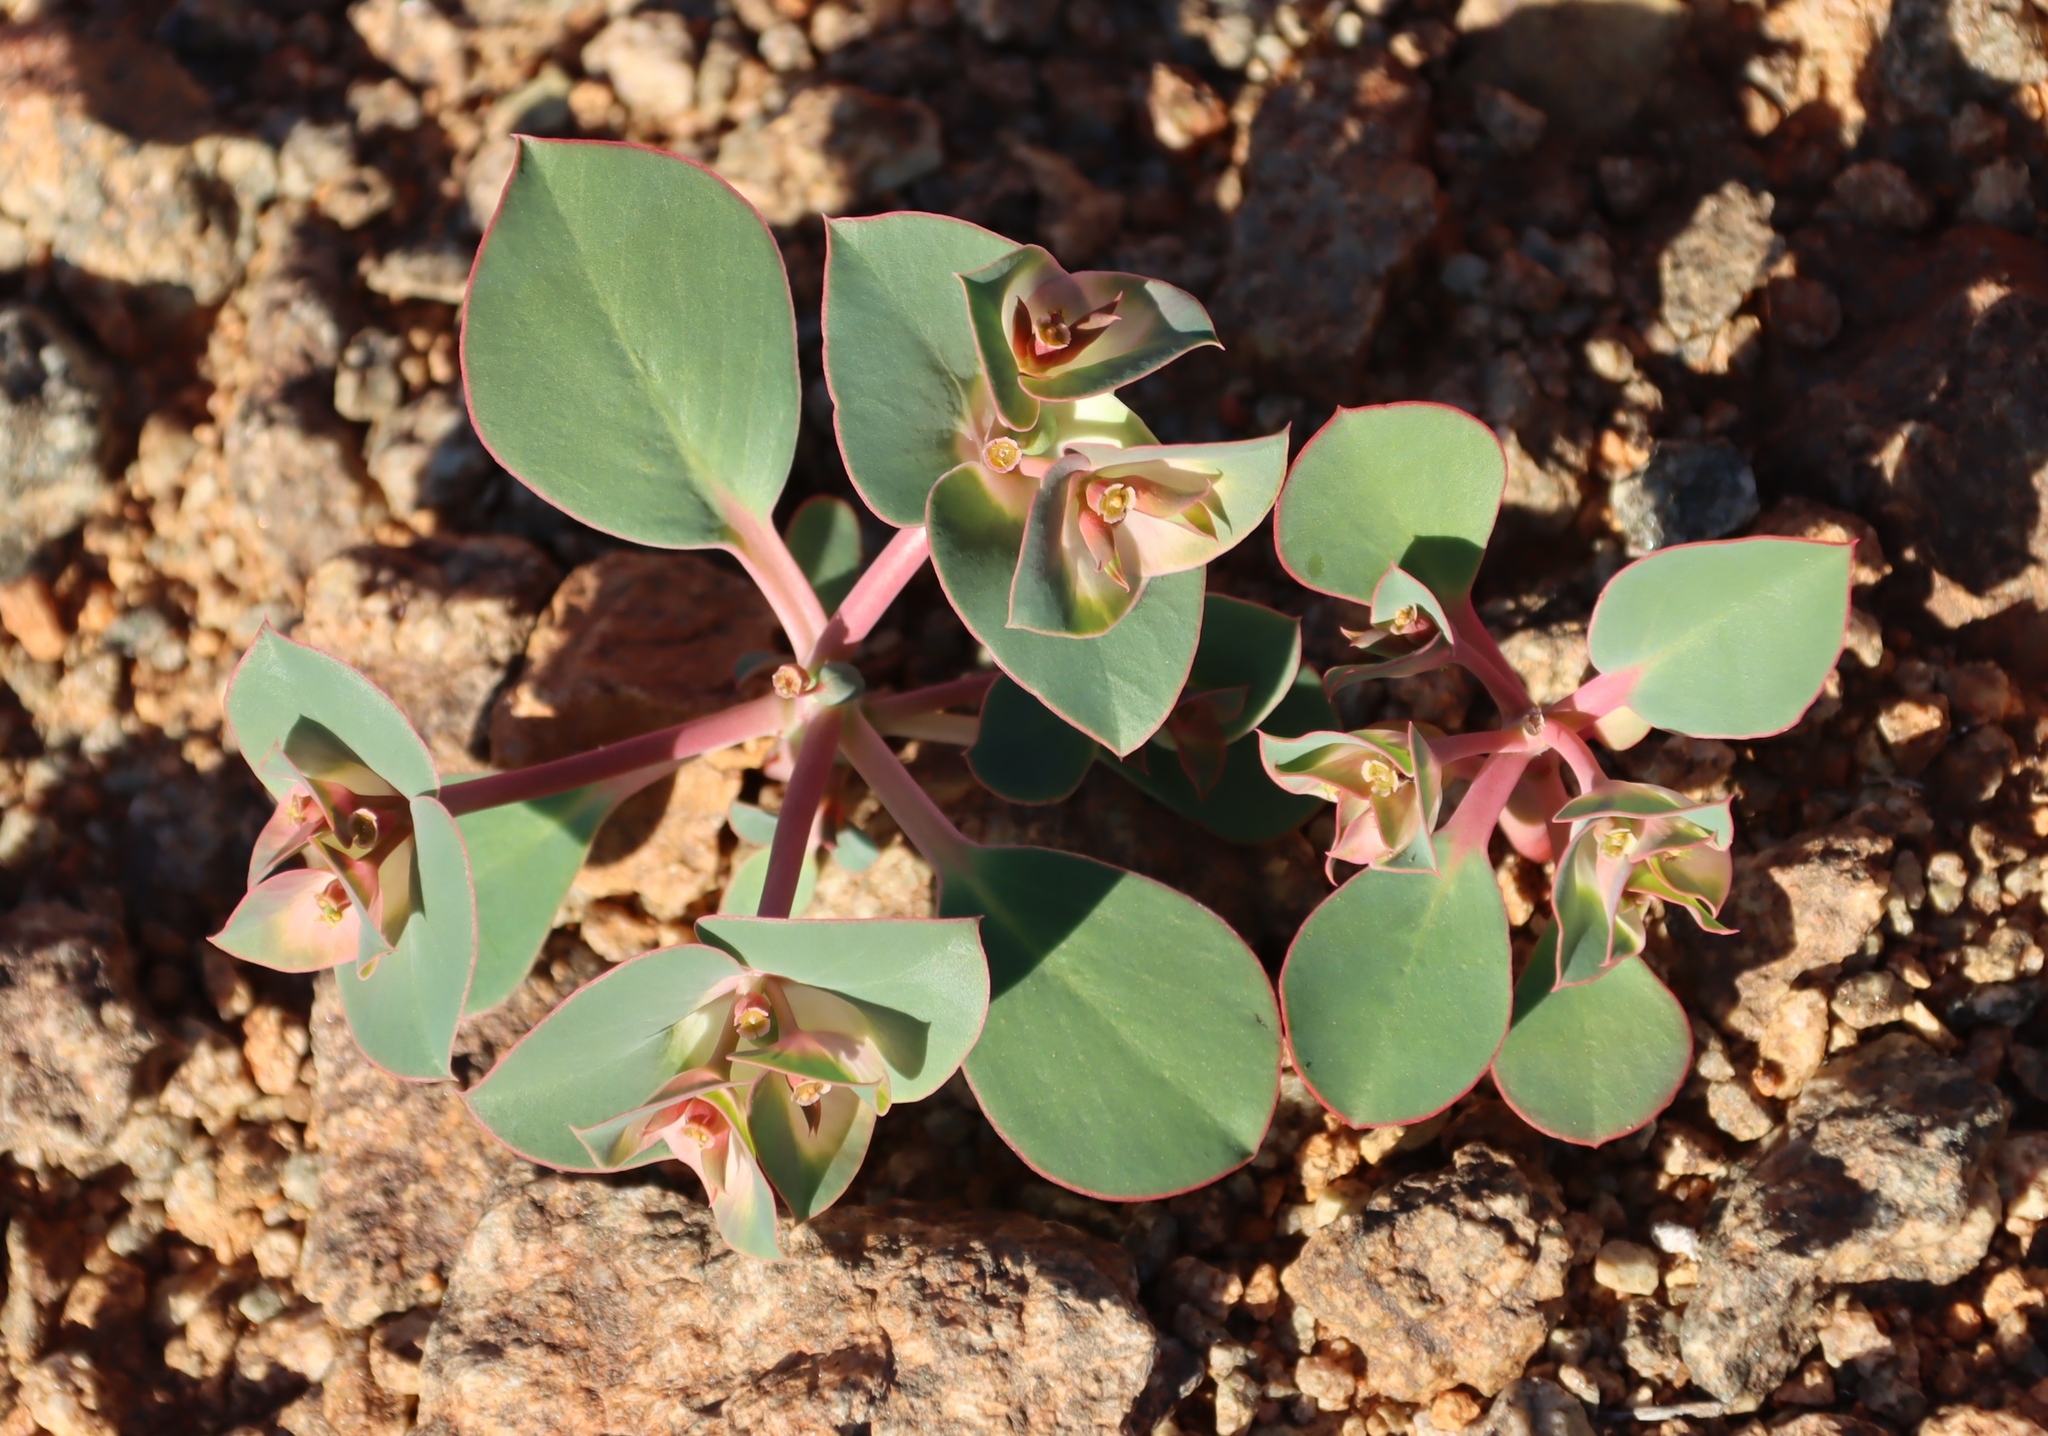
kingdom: Plantae
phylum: Tracheophyta
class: Magnoliopsida
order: Malpighiales
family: Euphorbiaceae
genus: Euphorbia
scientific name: Euphorbia phylloclada
